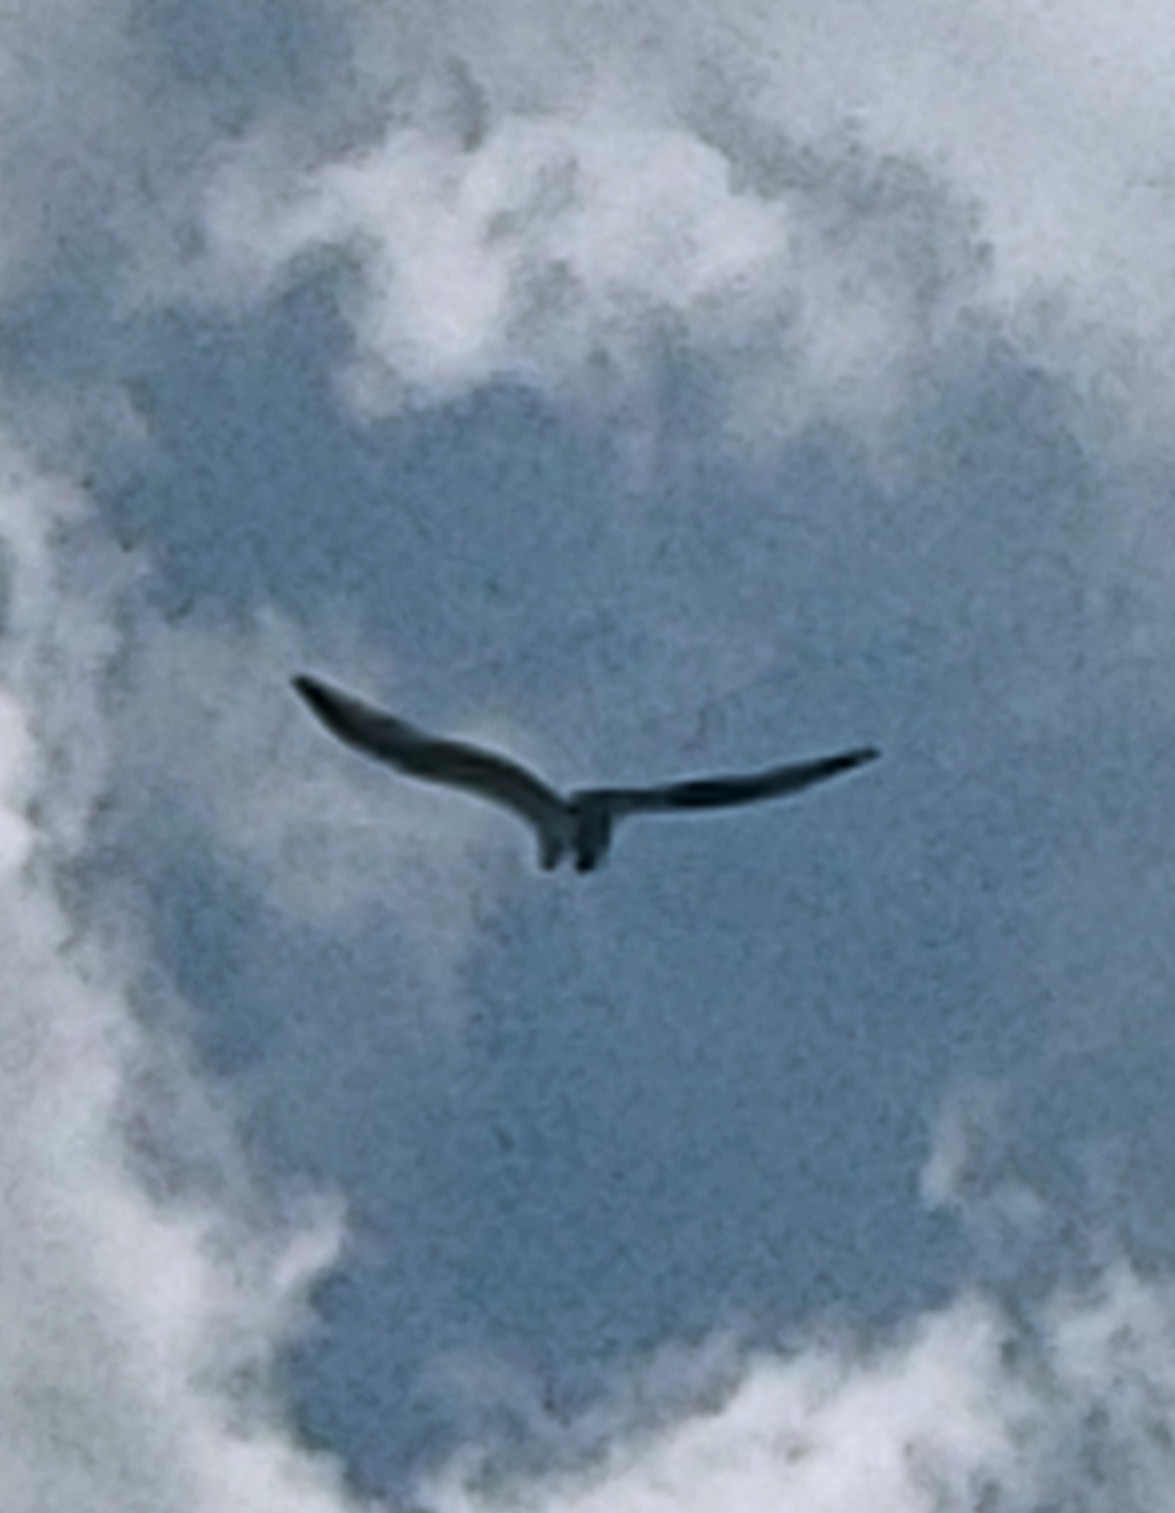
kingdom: Animalia
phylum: Chordata
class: Aves
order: Accipitriformes
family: Pandionidae
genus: Pandion
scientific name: Pandion haliaetus
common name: Osprey
